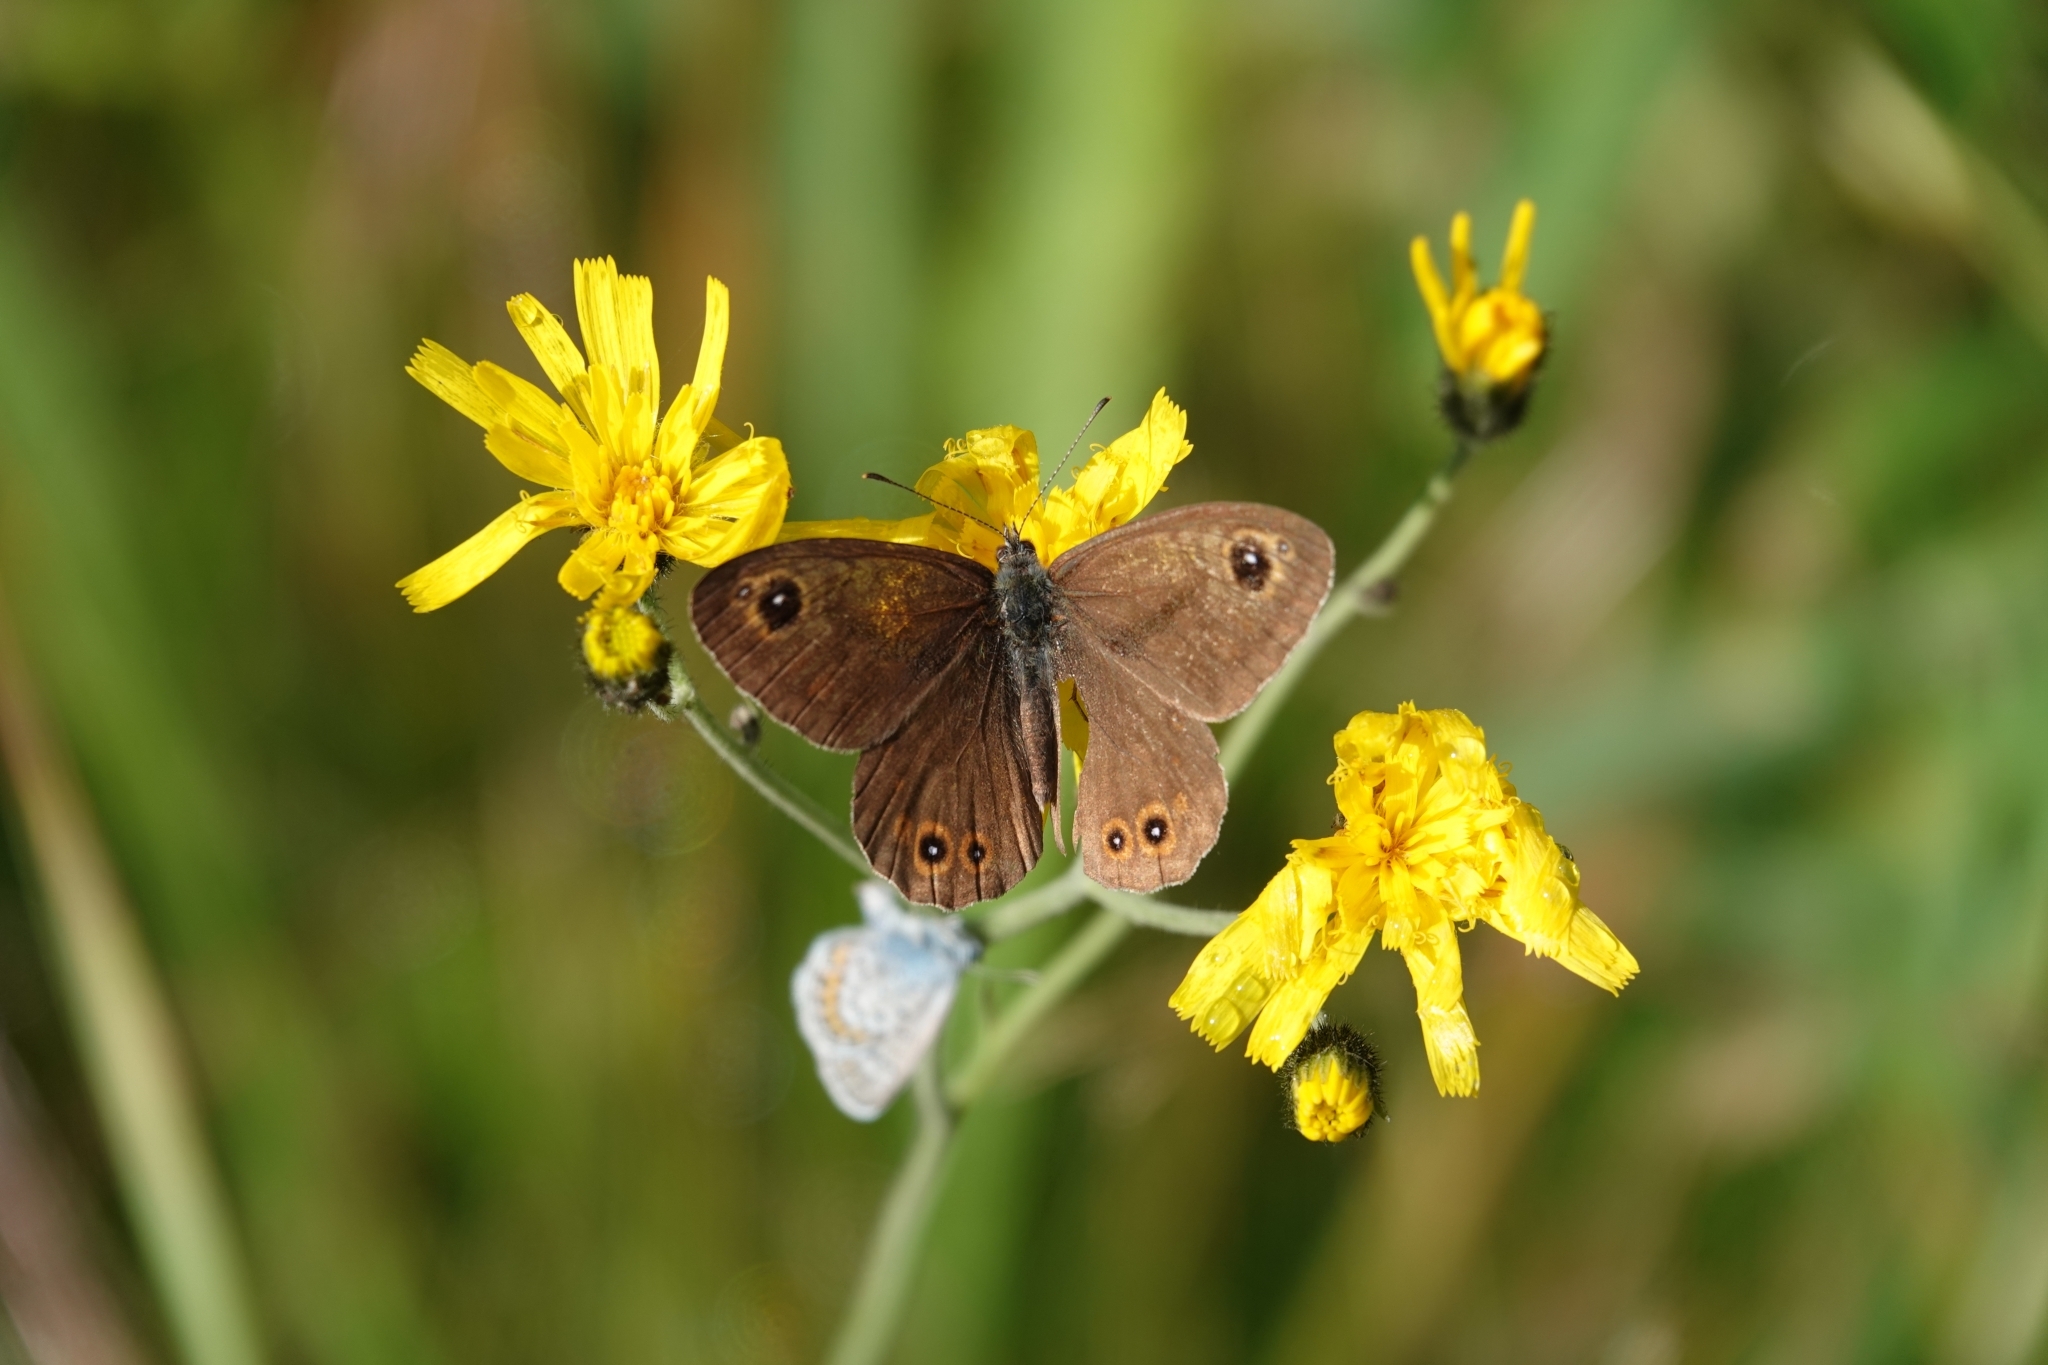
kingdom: Animalia
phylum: Arthropoda
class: Insecta
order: Lepidoptera
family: Nymphalidae
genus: Pararge
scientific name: Pararge Lasiommata maera
